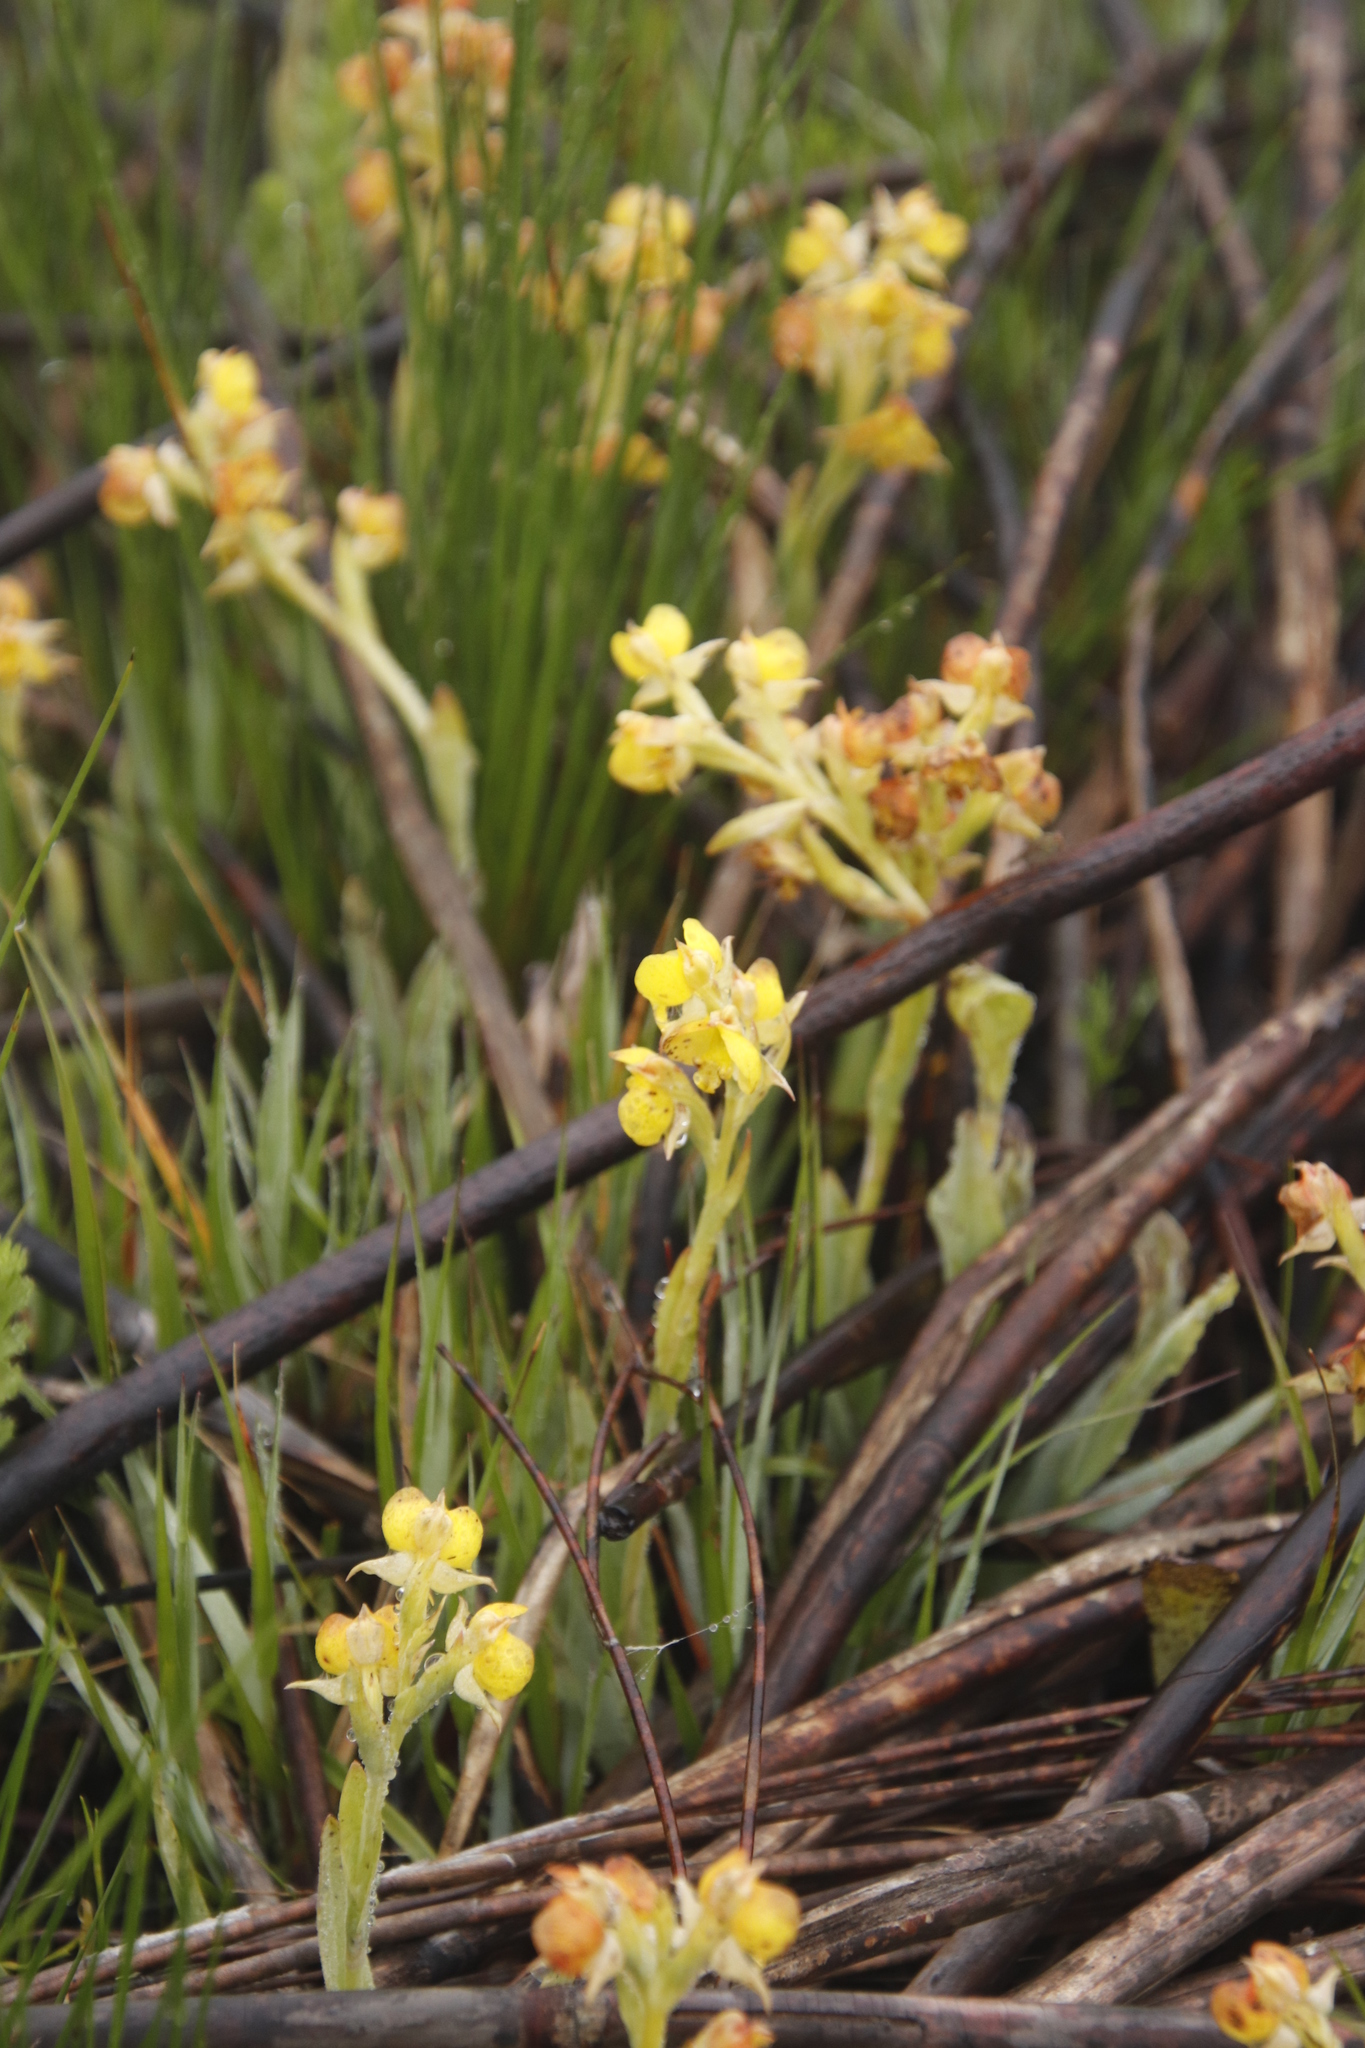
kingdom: Plantae
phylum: Tracheophyta
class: Liliopsida
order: Asparagales
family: Orchidaceae
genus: Pterygodium
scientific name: Pterygodium acutifolium
